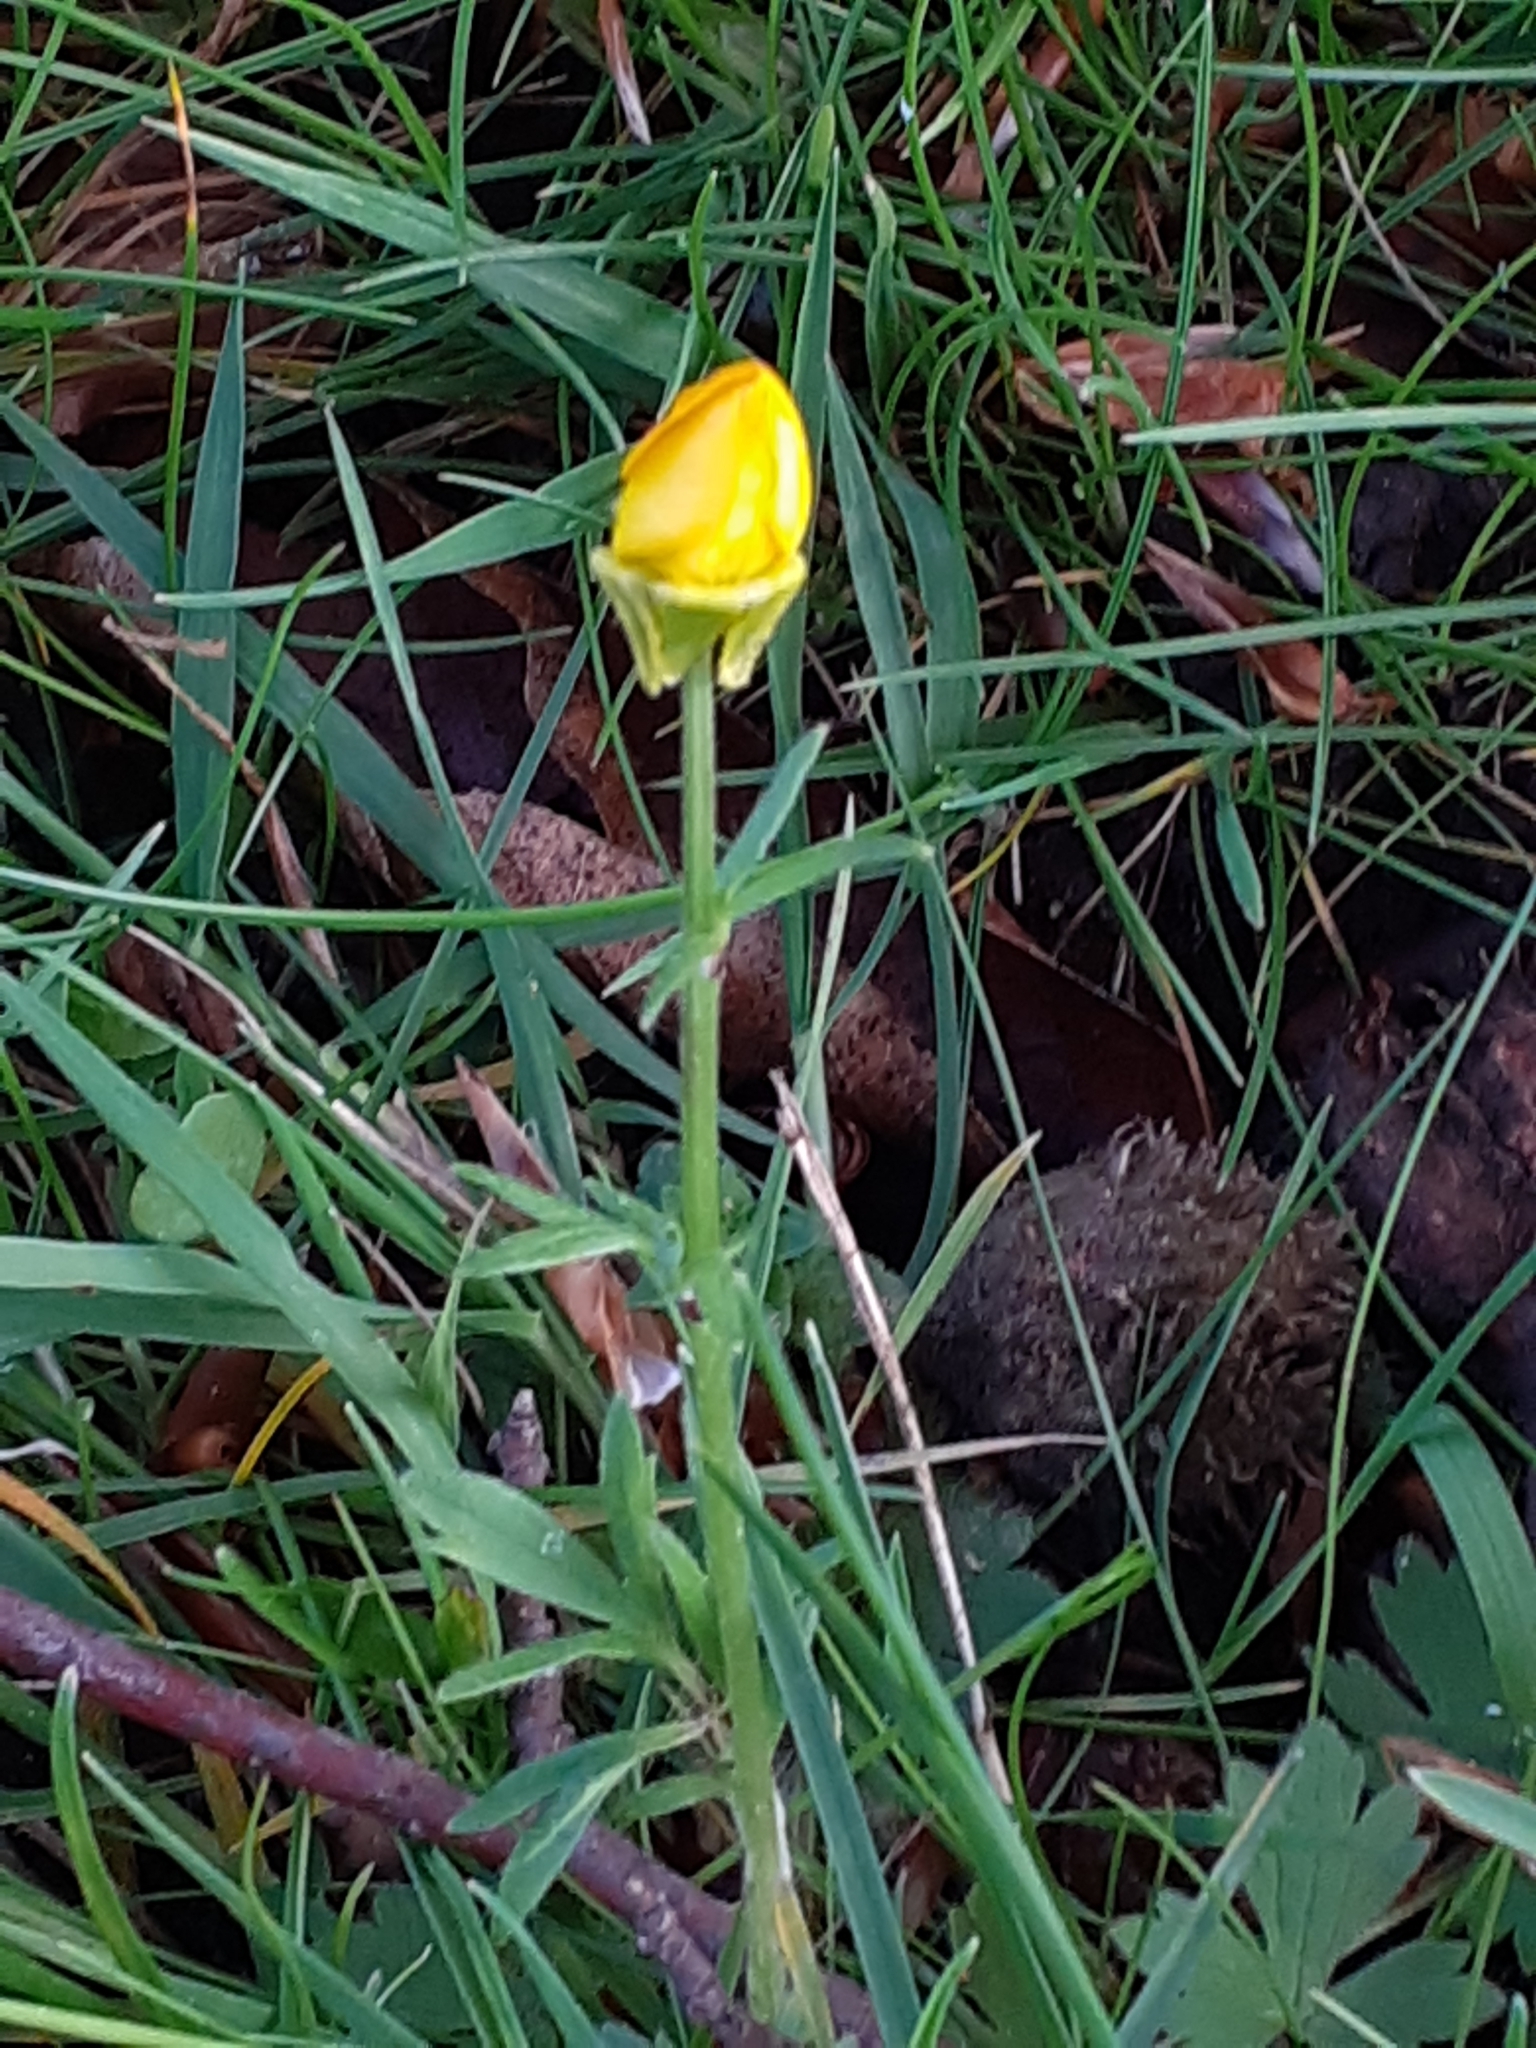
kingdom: Plantae
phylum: Tracheophyta
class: Magnoliopsida
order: Ranunculales
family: Ranunculaceae
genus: Ranunculus
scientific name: Ranunculus bulbosus
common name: Bulbous buttercup
